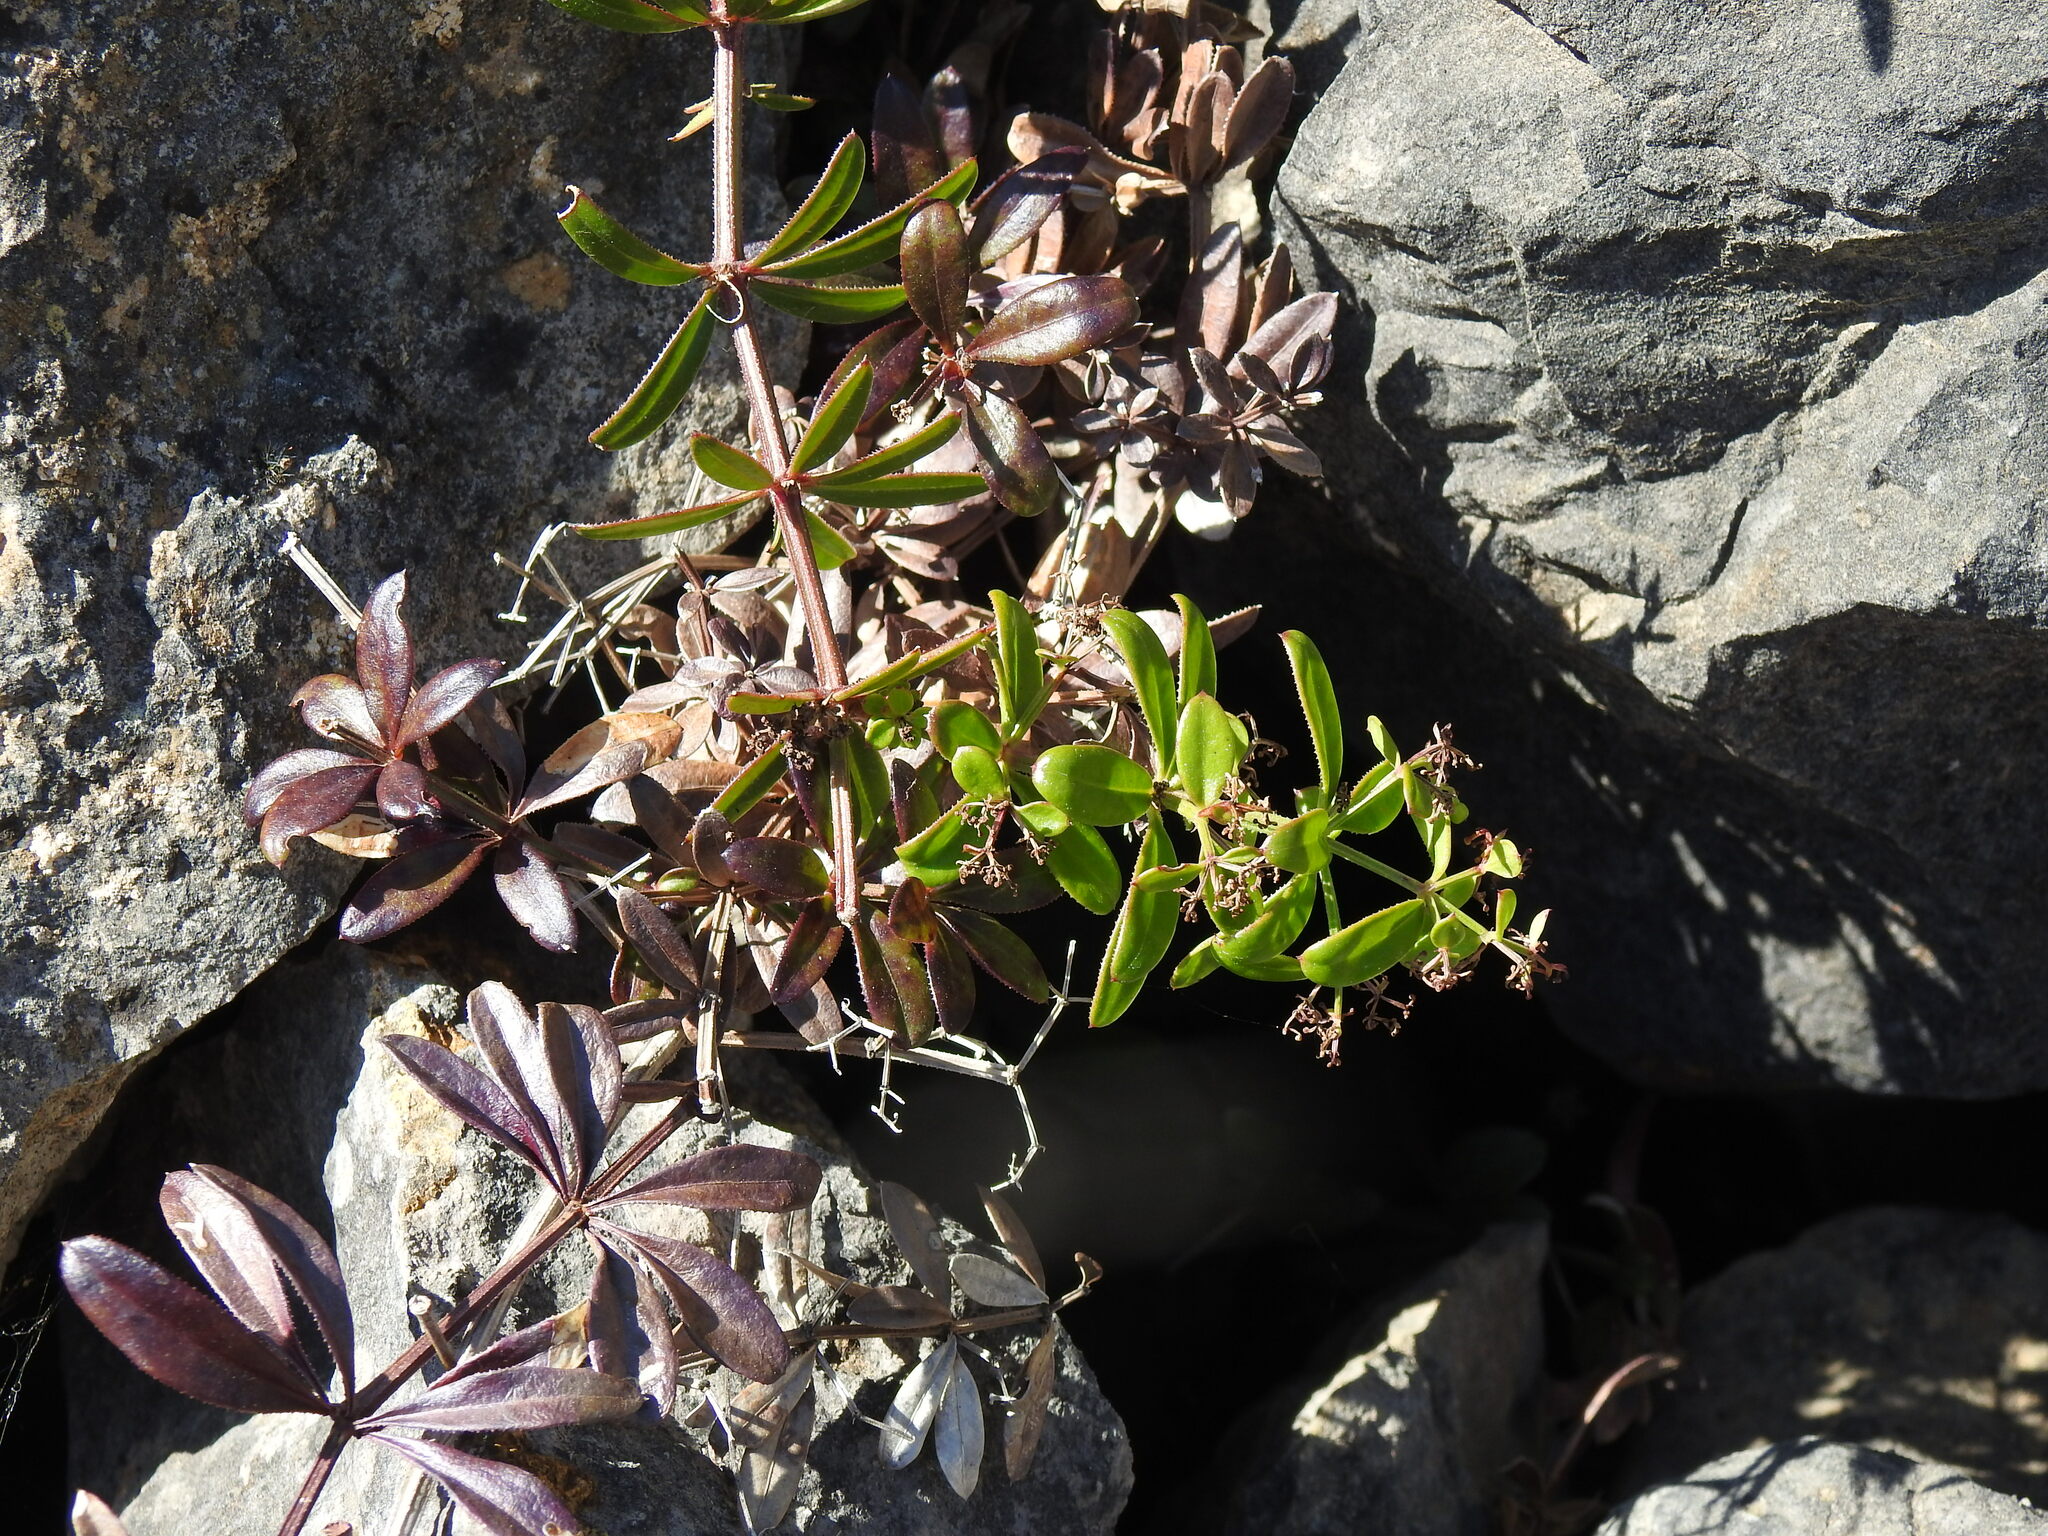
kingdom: Plantae
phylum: Tracheophyta
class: Magnoliopsida
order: Gentianales
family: Rubiaceae
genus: Rubia
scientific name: Rubia peregrina
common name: Wild madder
